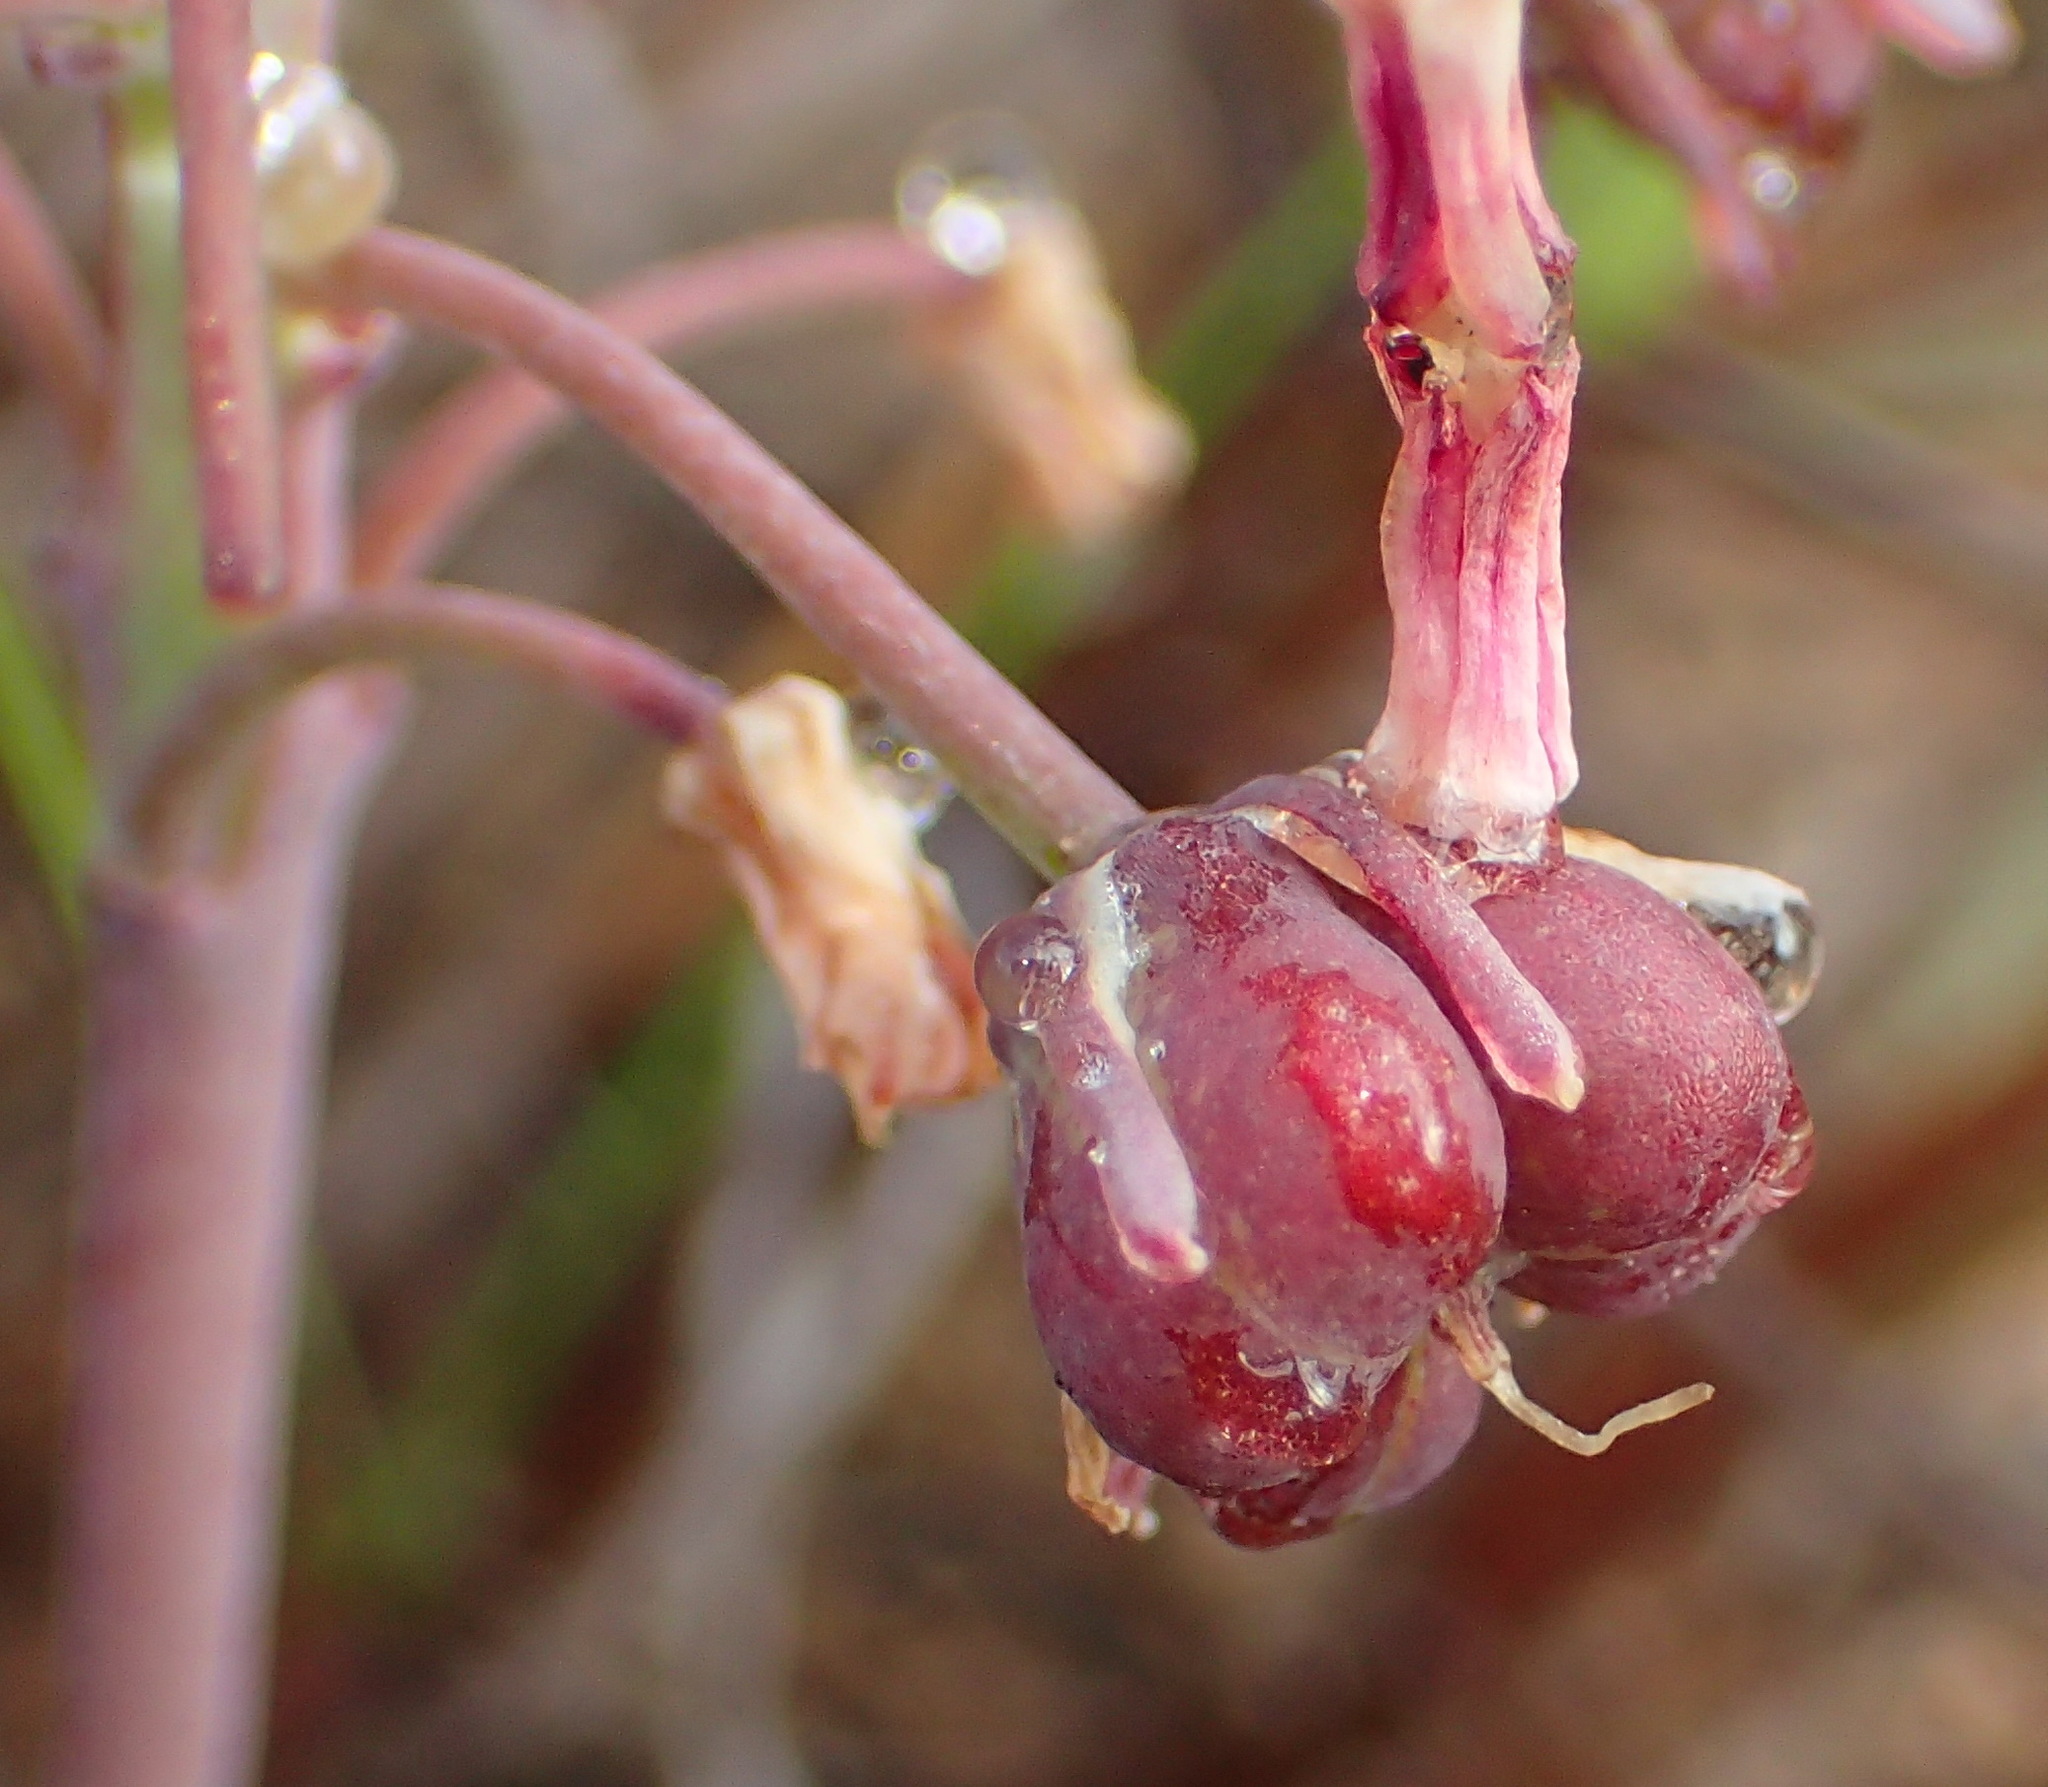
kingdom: Plantae
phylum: Tracheophyta
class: Liliopsida
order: Asparagales
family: Asparagaceae
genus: Ledebouria
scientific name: Ledebouria ovalifolia
